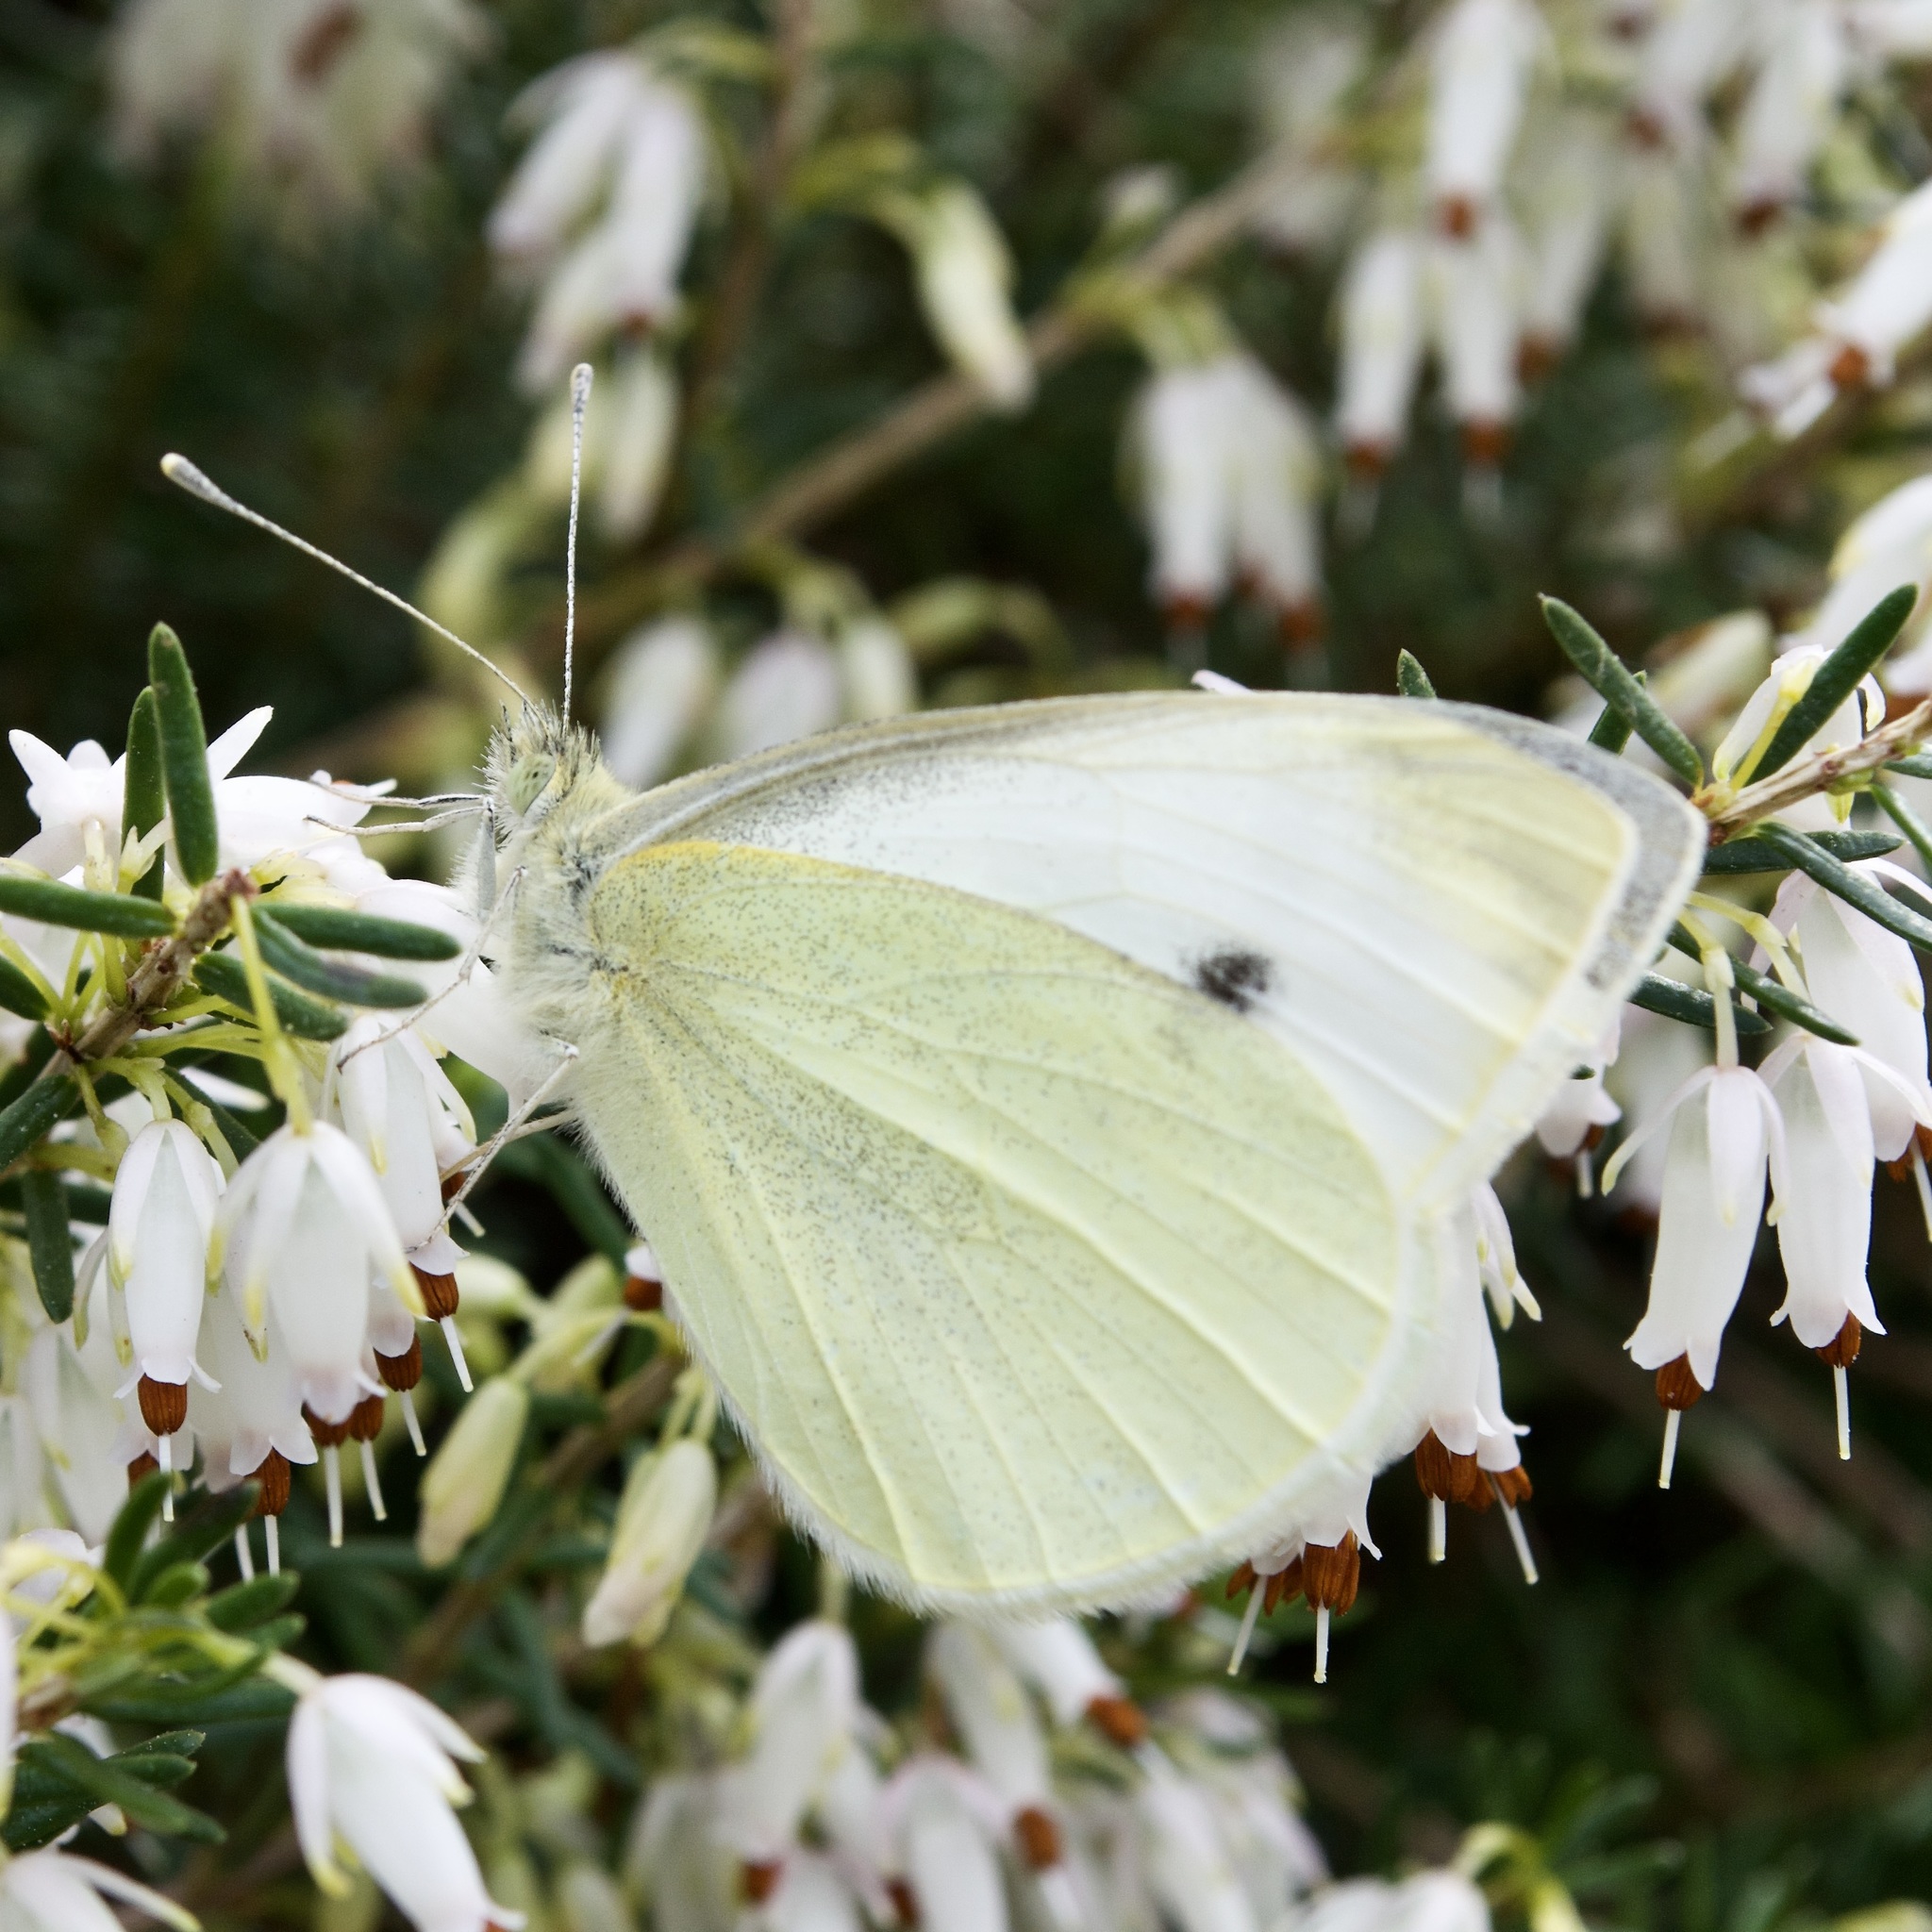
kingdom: Animalia
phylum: Arthropoda
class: Insecta
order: Lepidoptera
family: Pieridae
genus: Pieris
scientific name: Pieris rapae
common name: Small white
